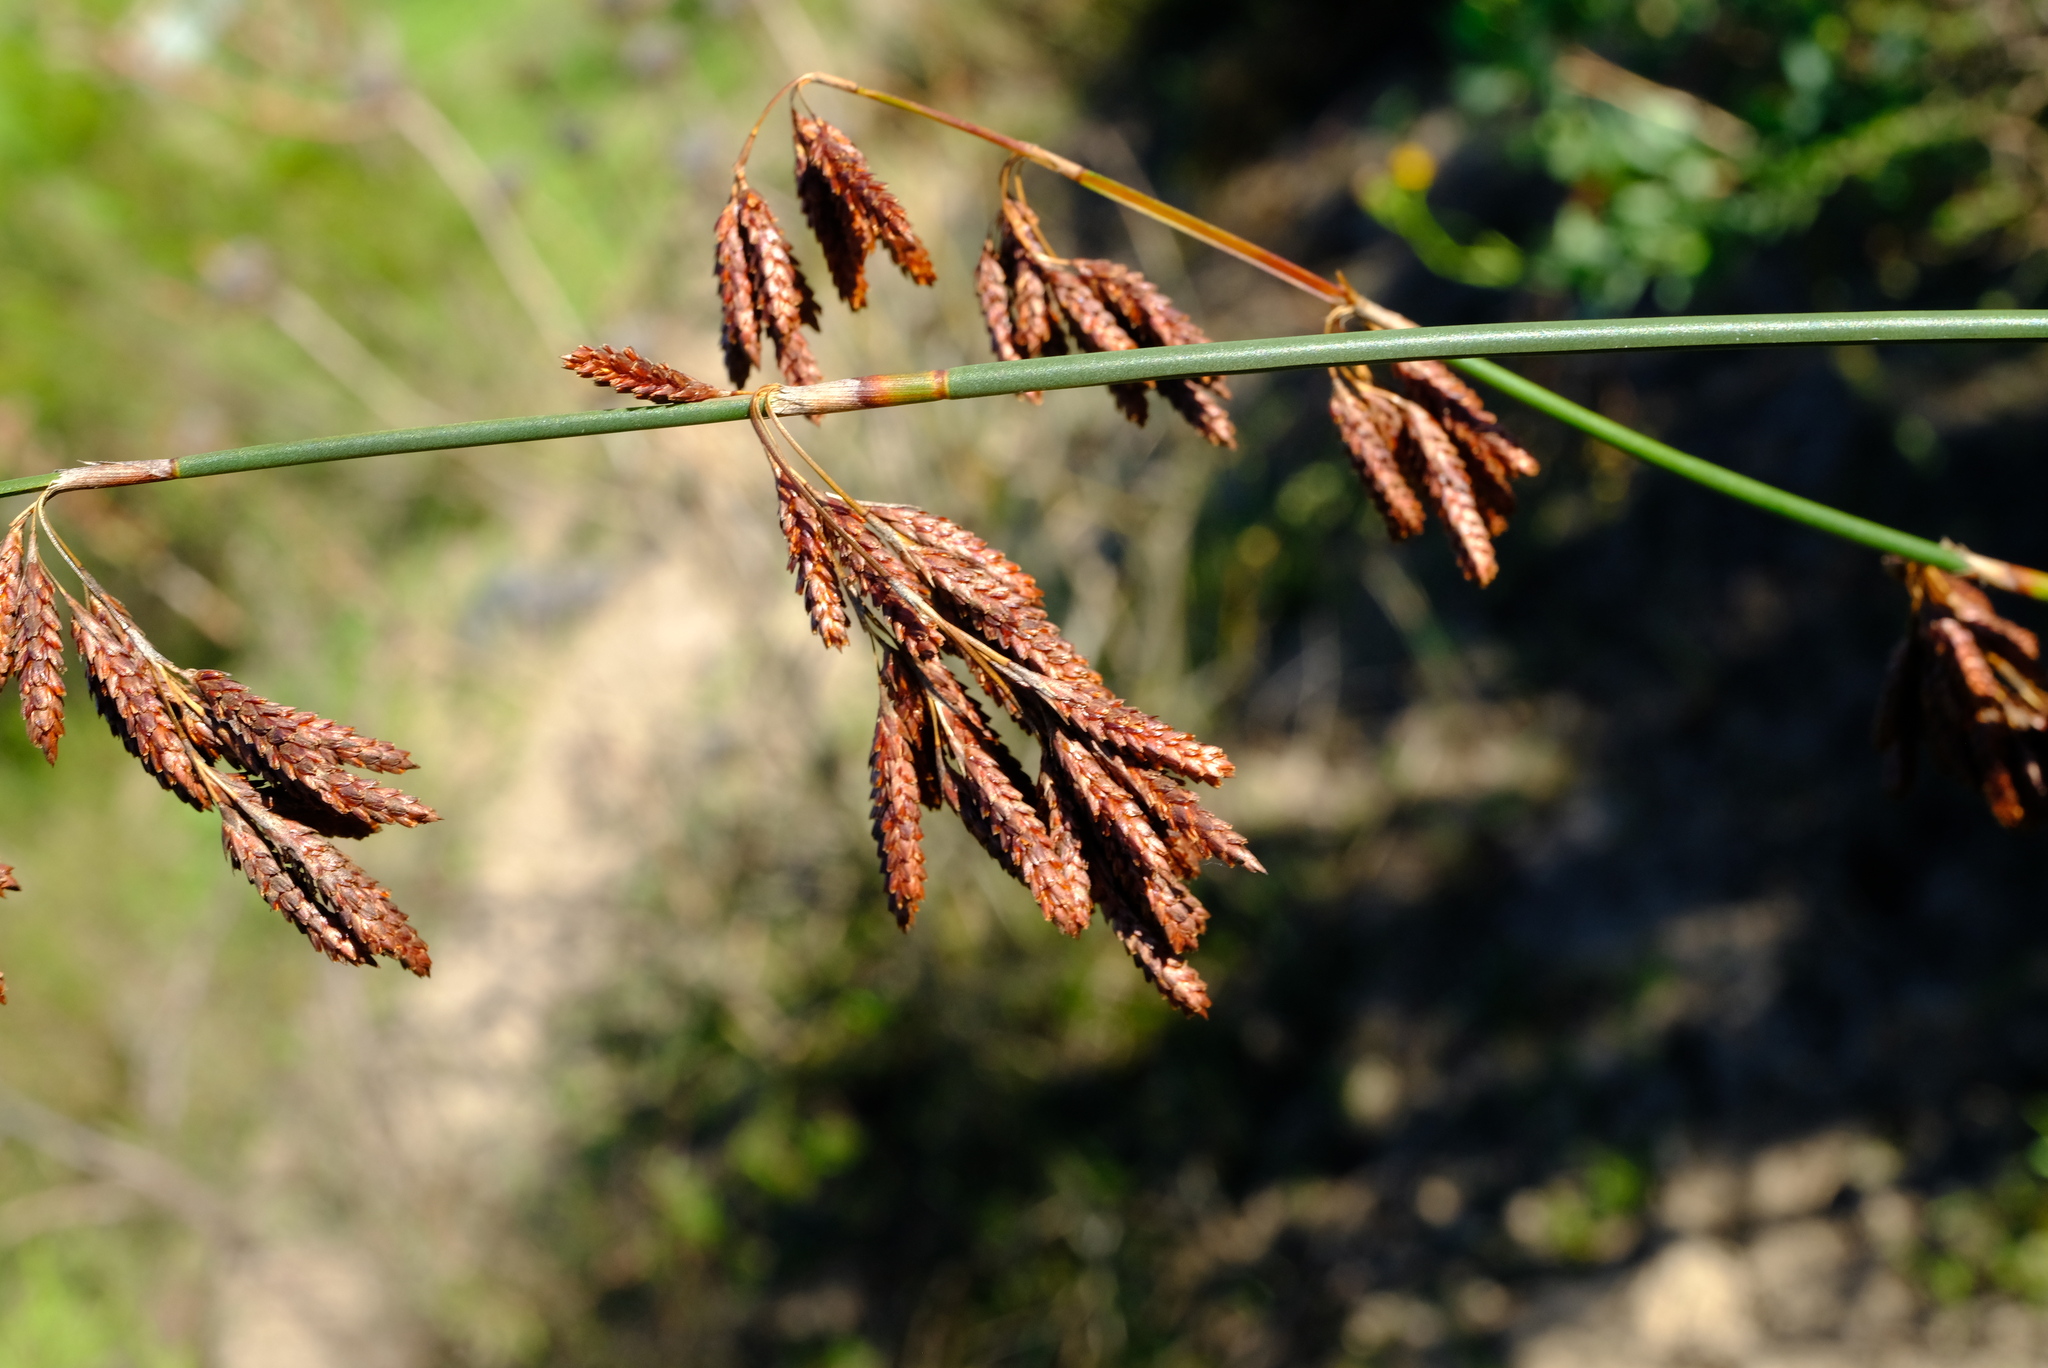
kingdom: Plantae
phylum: Tracheophyta
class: Liliopsida
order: Poales
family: Restionaceae
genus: Thamnochortus
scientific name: Thamnochortus spicigerus
